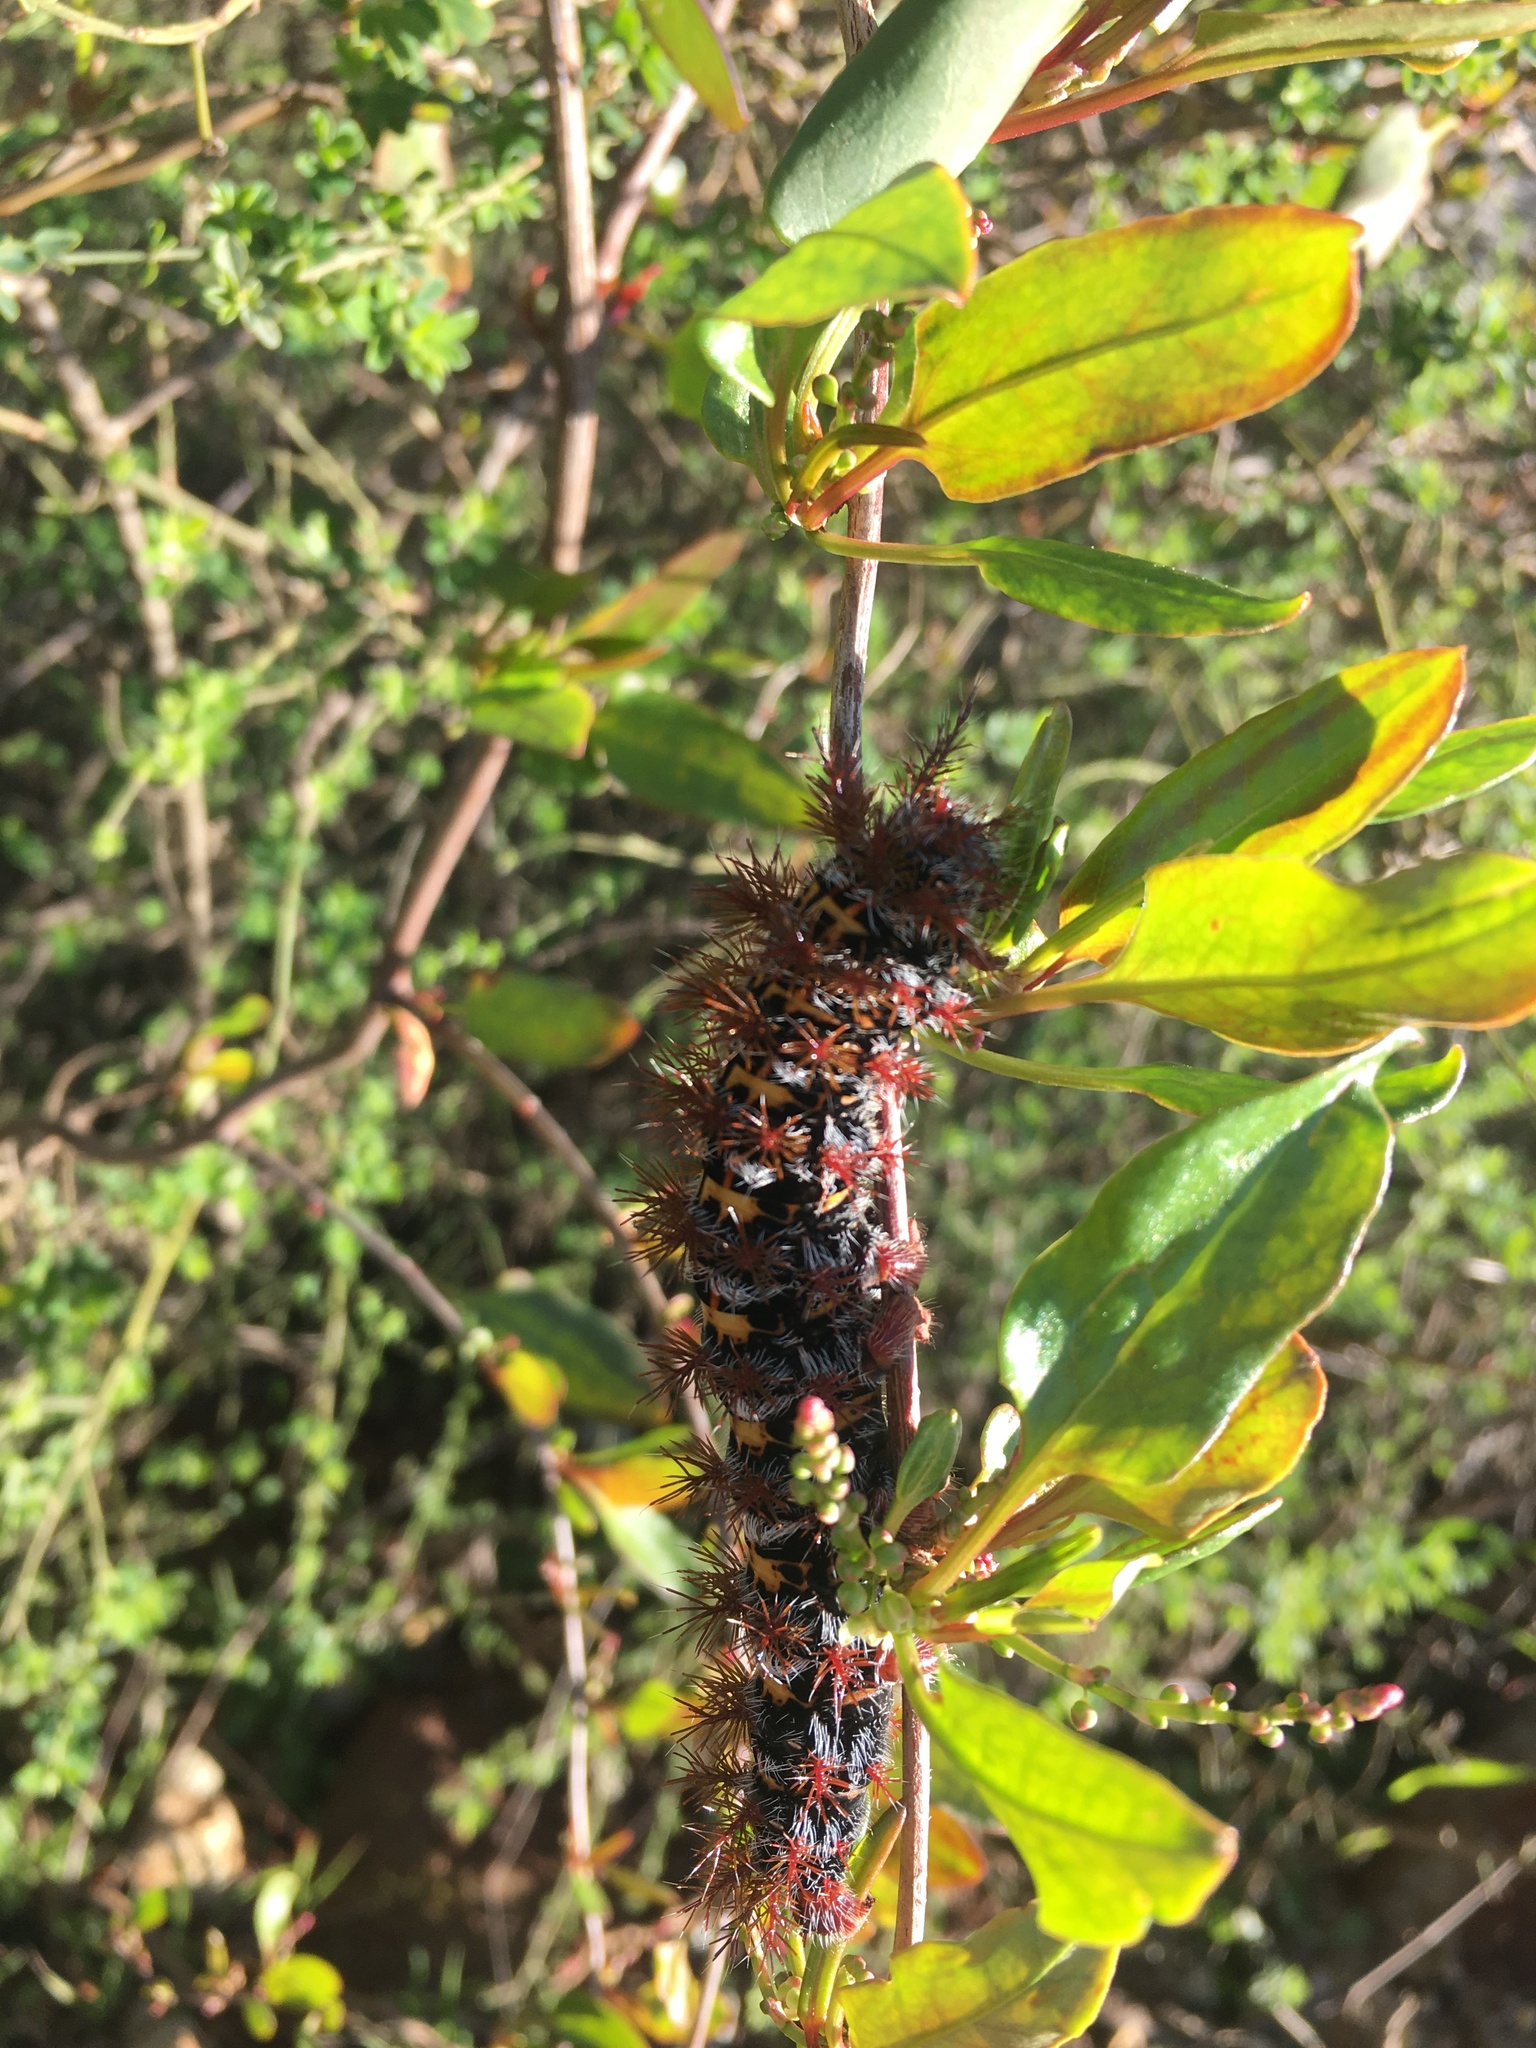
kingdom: Animalia
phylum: Arthropoda
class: Insecta
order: Lepidoptera
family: Saturniidae
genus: Ormiscodes
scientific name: Ormiscodes cinnamomea
